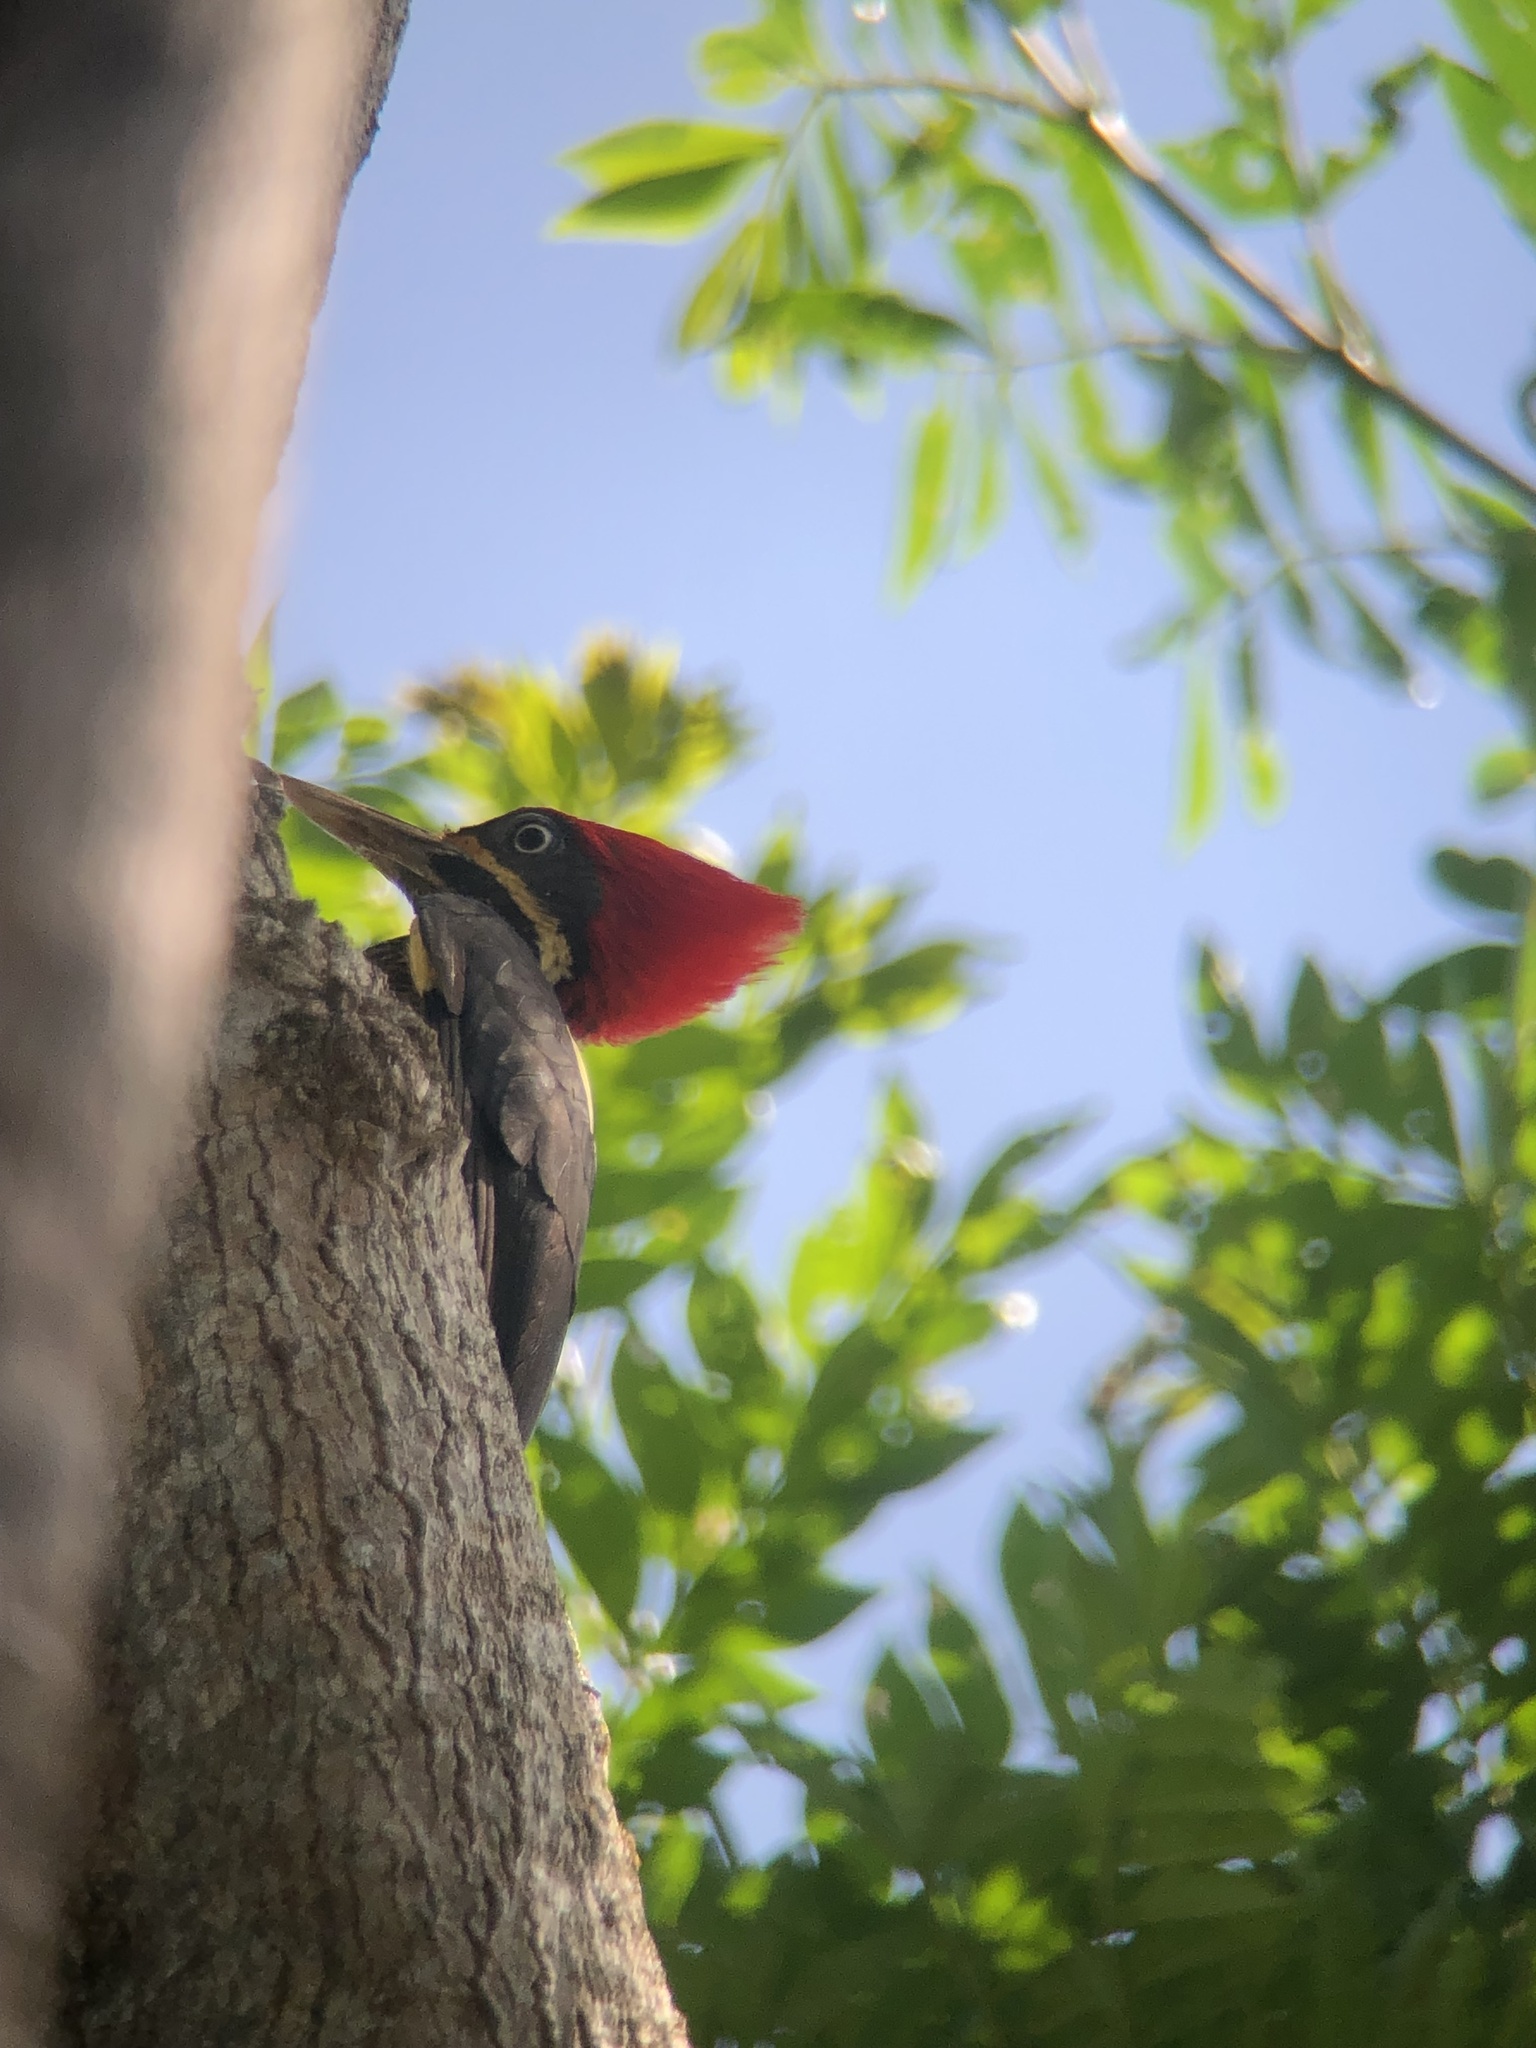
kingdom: Animalia
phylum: Chordata
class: Aves
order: Piciformes
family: Picidae
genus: Dryocopus
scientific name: Dryocopus lineatus
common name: Lineated woodpecker
